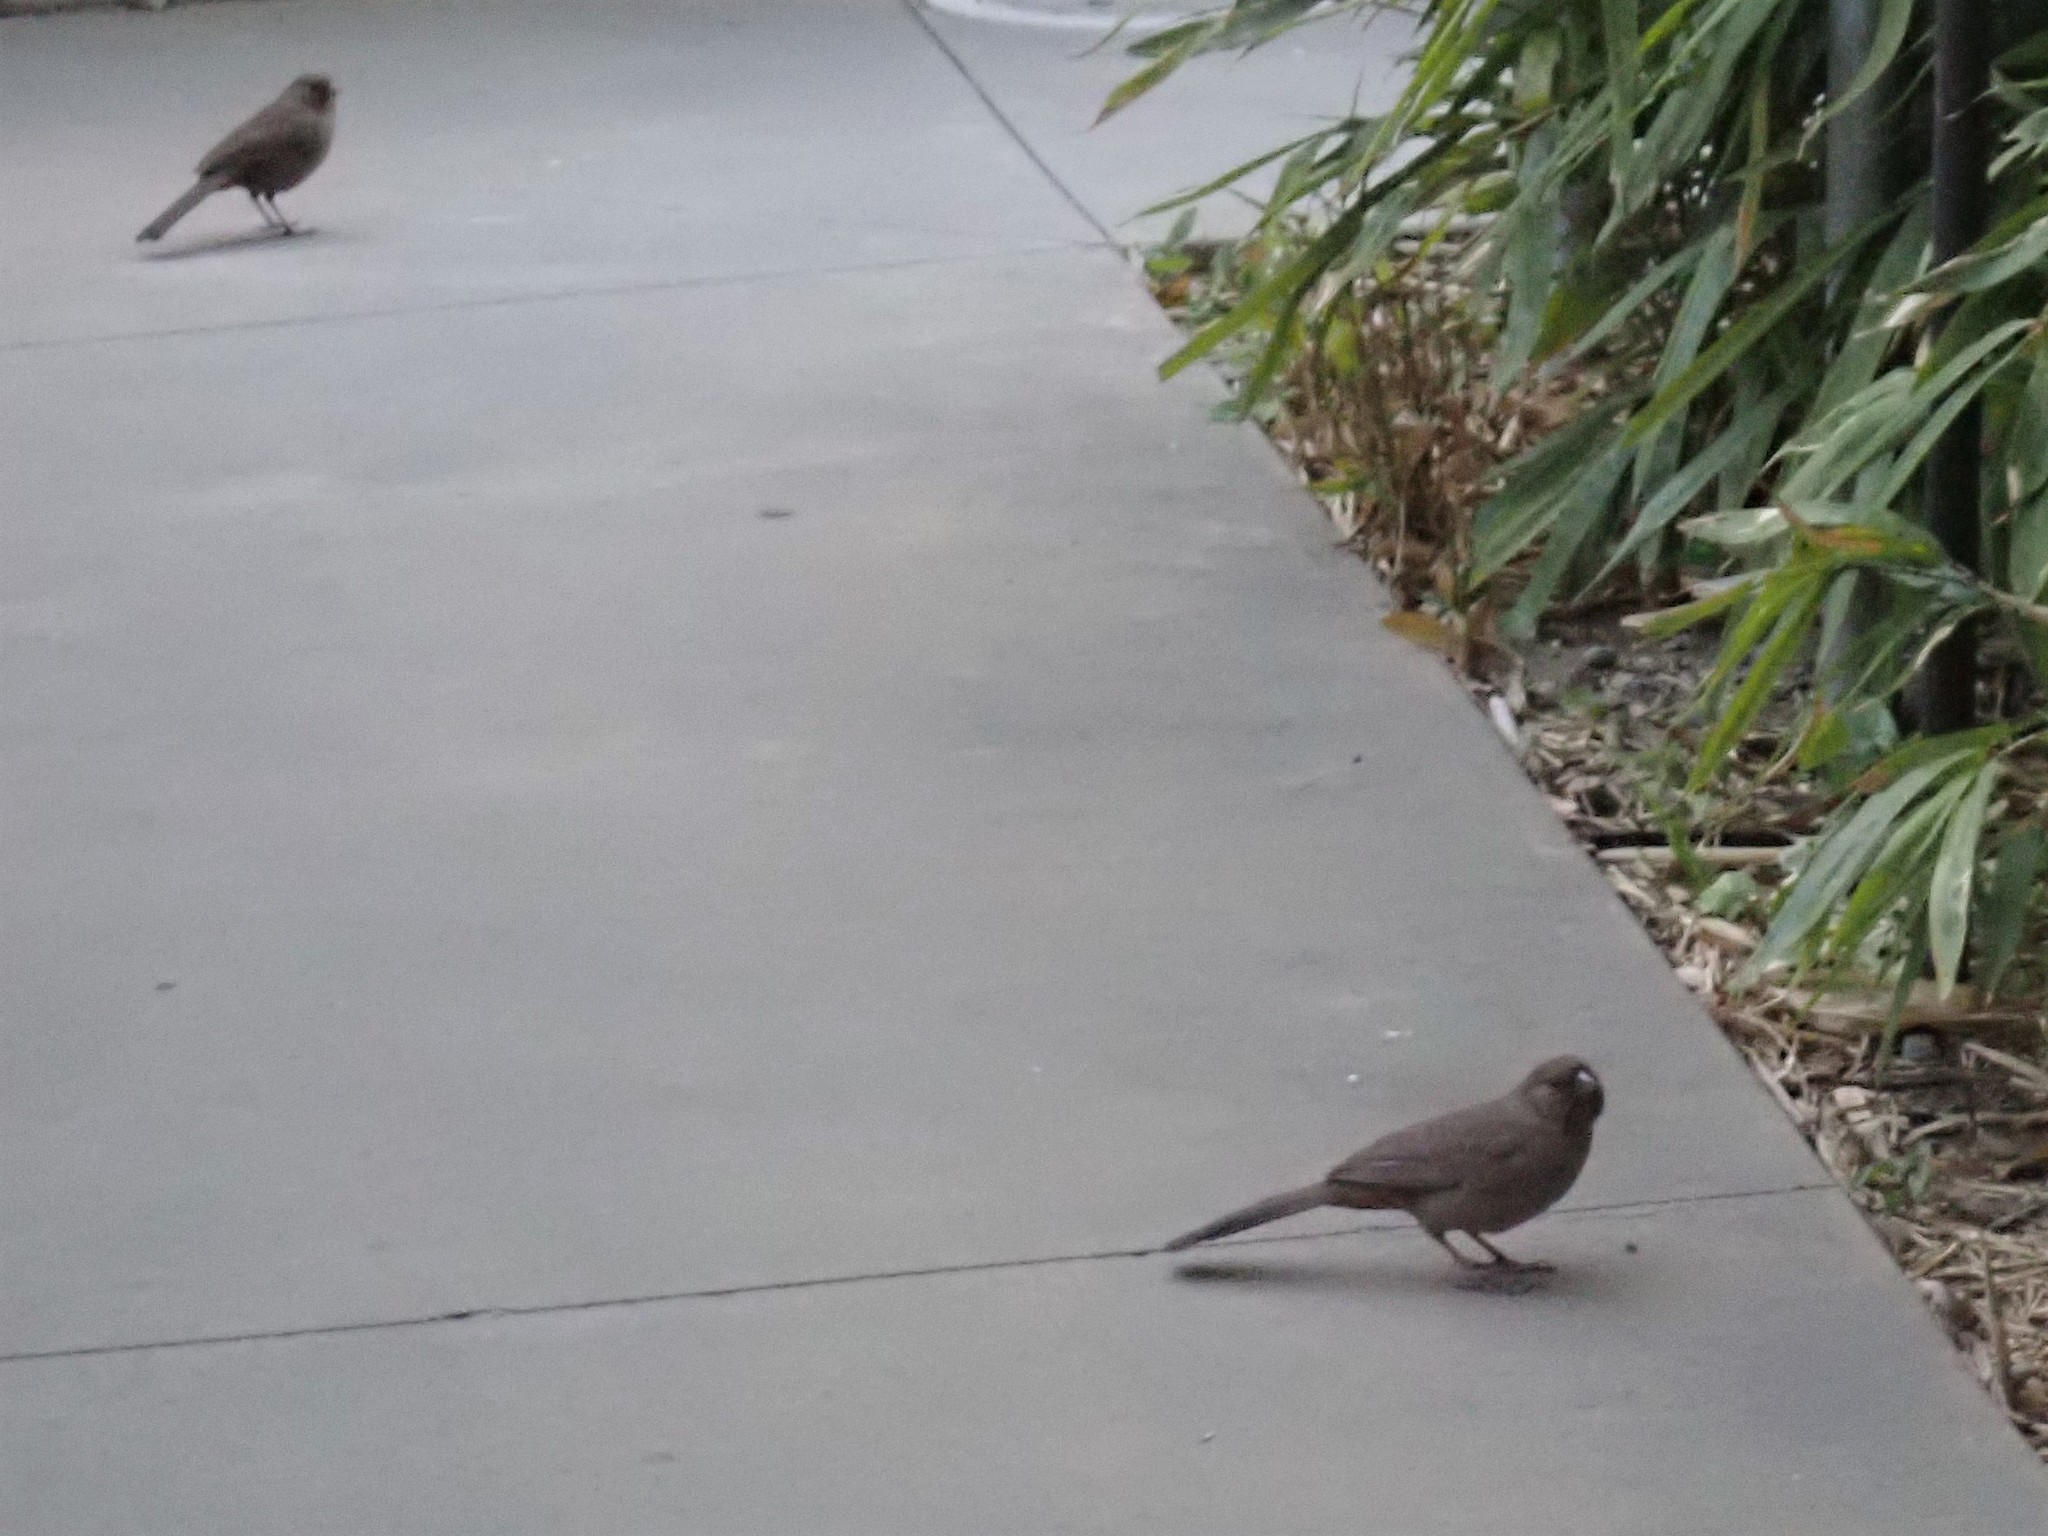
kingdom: Animalia
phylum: Chordata
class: Aves
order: Passeriformes
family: Passerellidae
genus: Melozone
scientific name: Melozone crissalis
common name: California towhee
